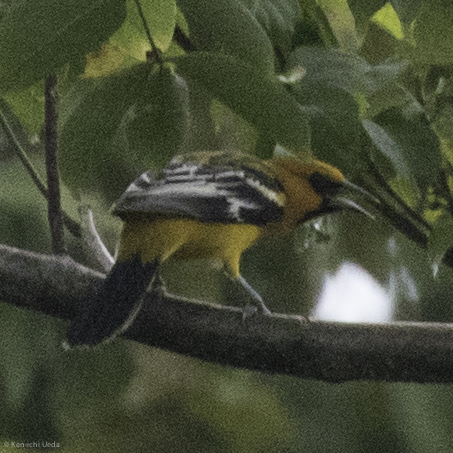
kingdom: Animalia
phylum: Chordata
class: Aves
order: Passeriformes
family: Icteridae
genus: Icterus
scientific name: Icterus pustulatus
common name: Streak-backed oriole
